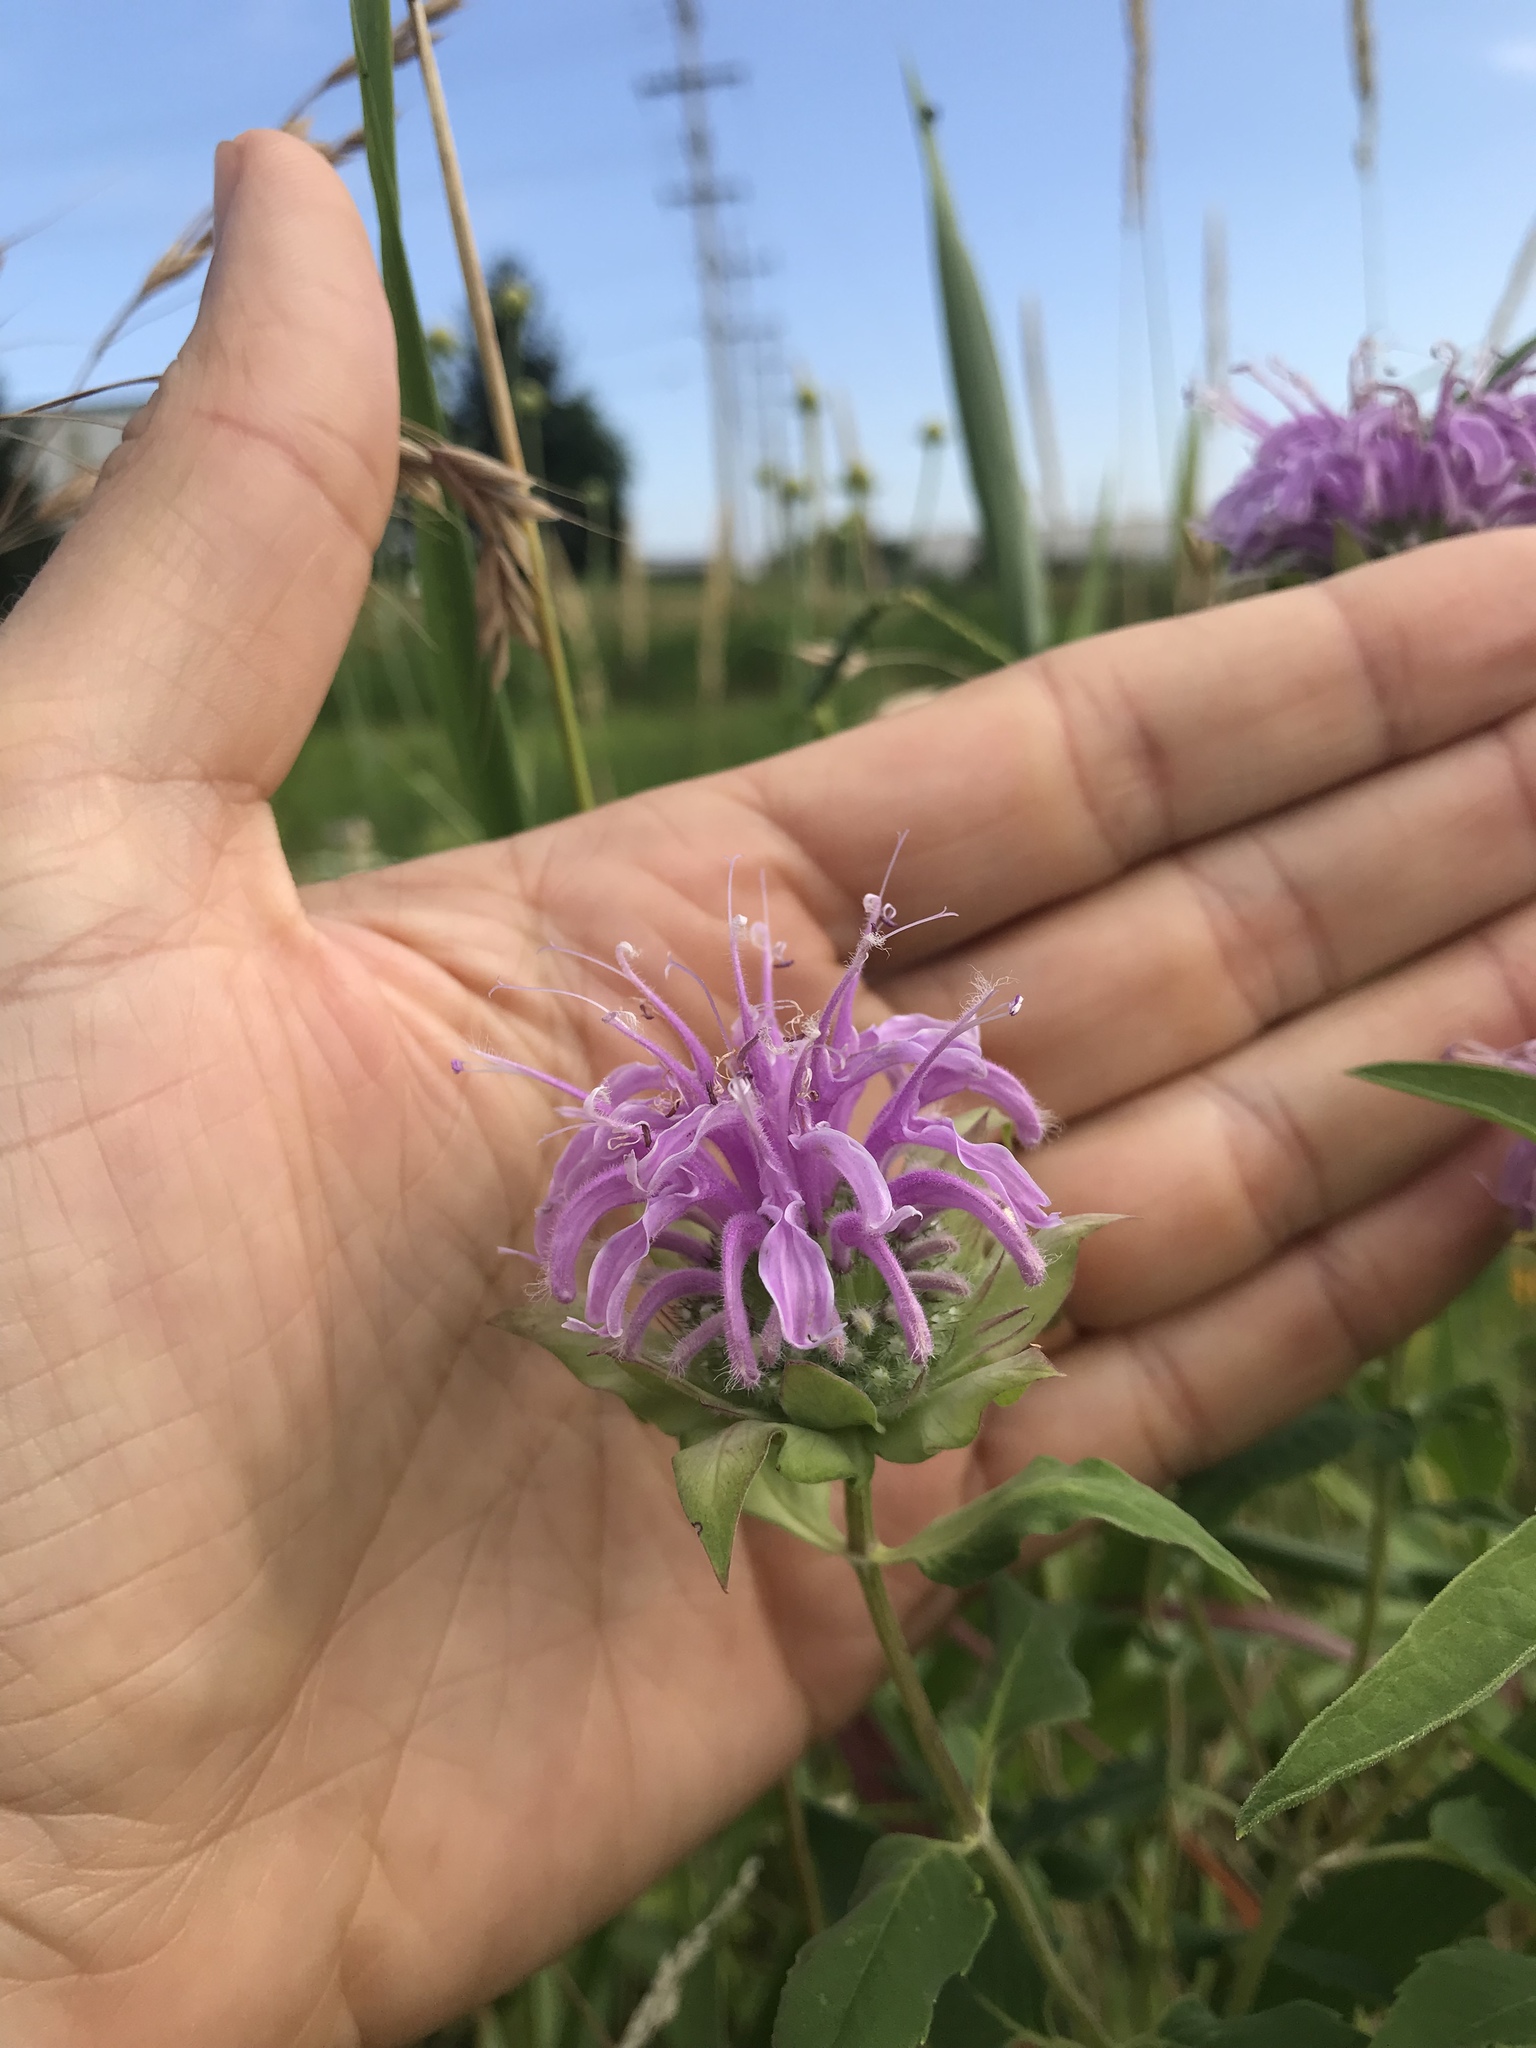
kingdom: Plantae
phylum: Tracheophyta
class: Magnoliopsida
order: Lamiales
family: Lamiaceae
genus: Monarda
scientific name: Monarda fistulosa
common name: Purple beebalm
